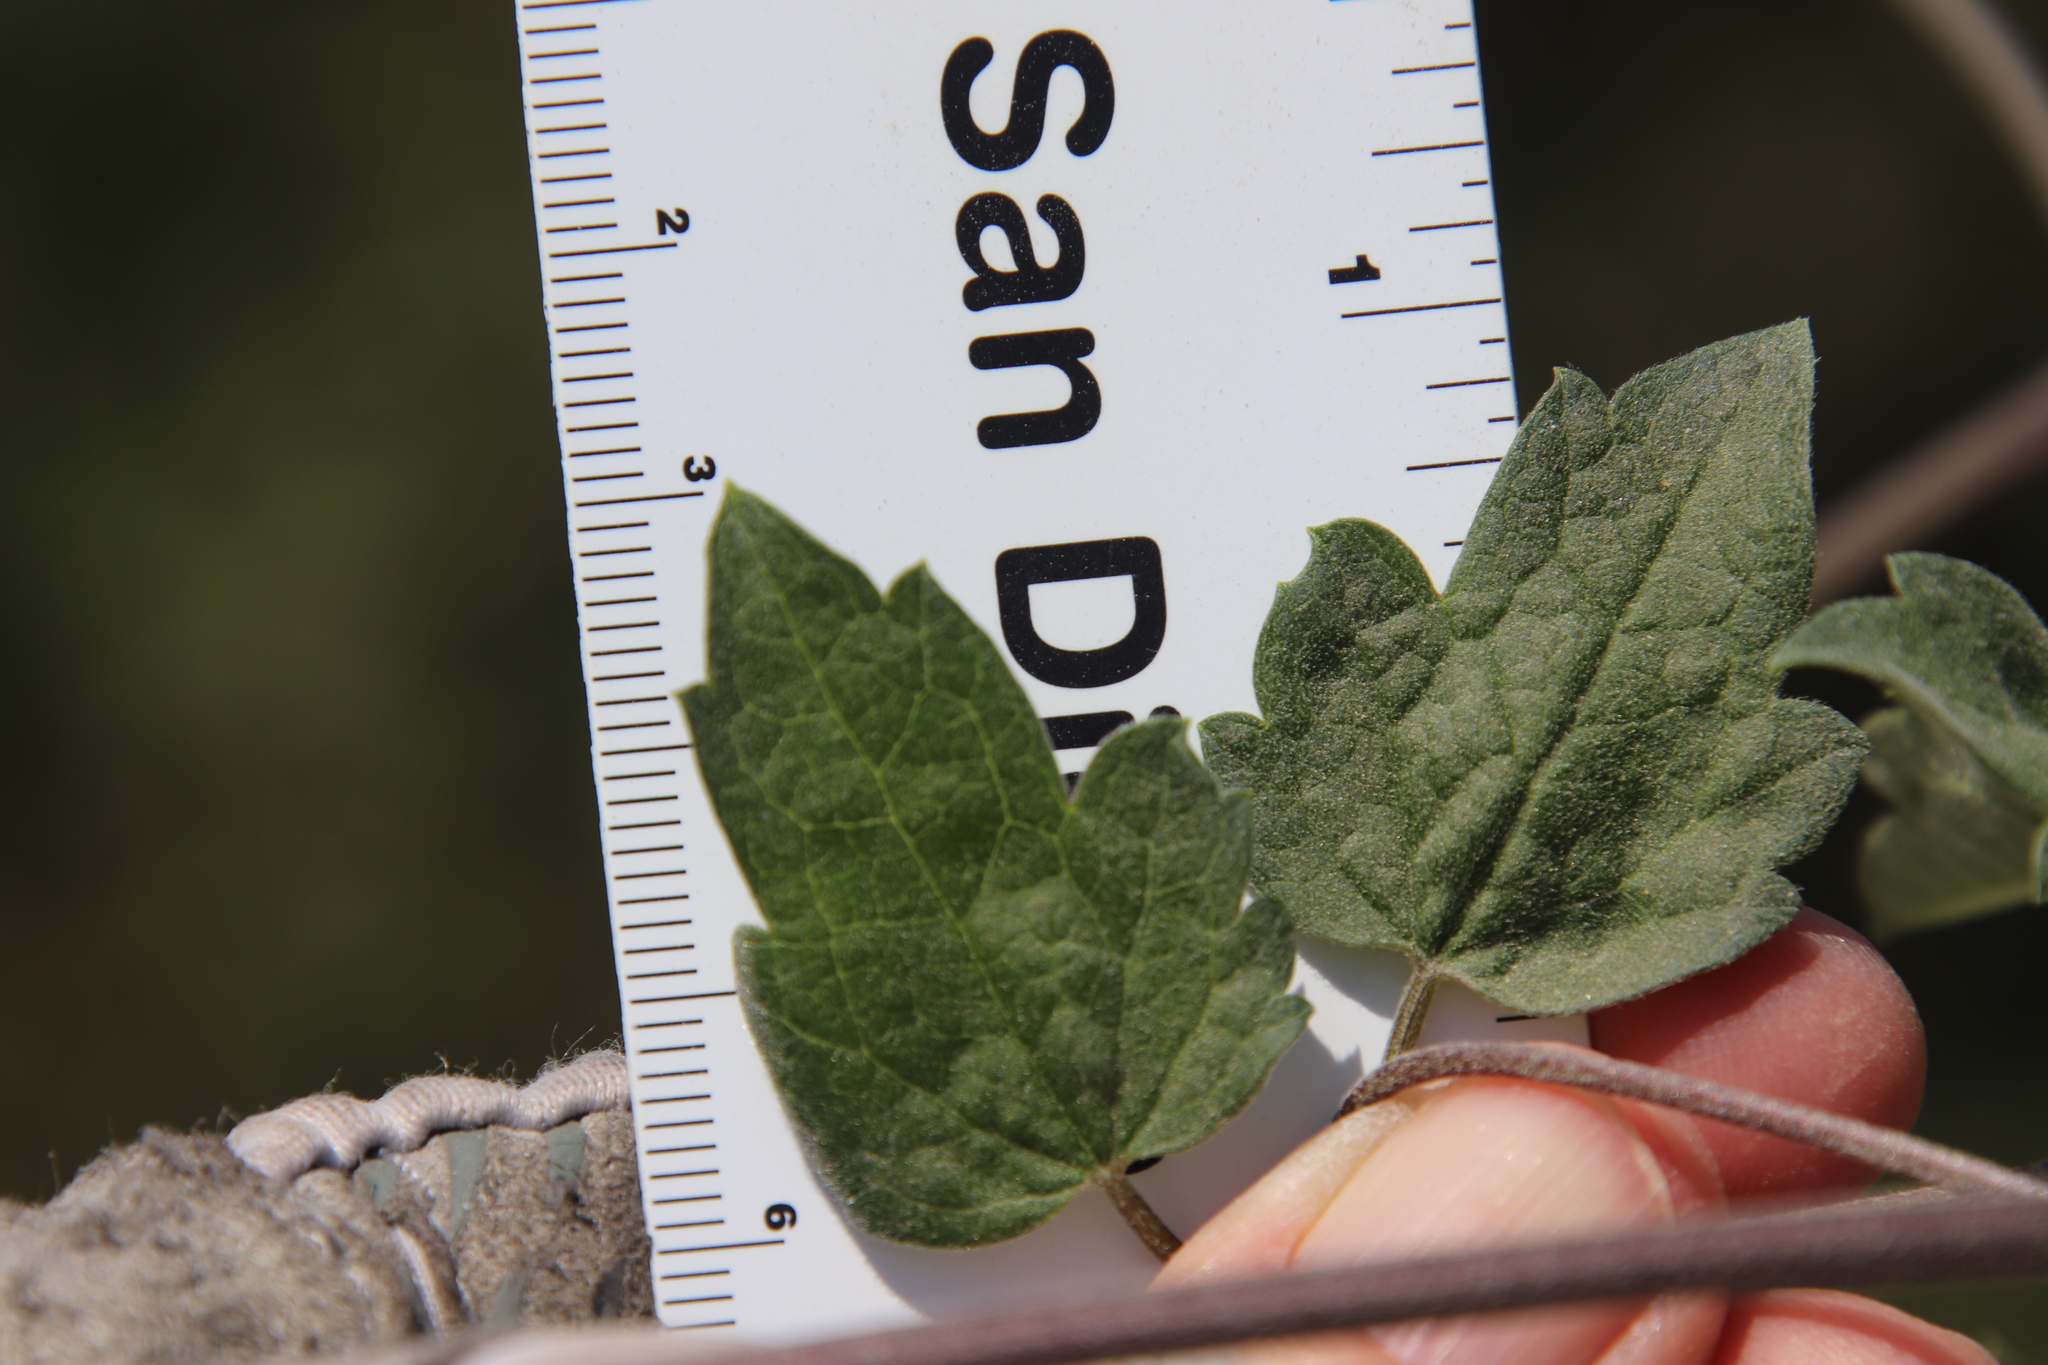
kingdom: Plantae
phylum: Tracheophyta
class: Magnoliopsida
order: Ranunculales
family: Ranunculaceae
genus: Clematis
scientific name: Clematis lasiantha
